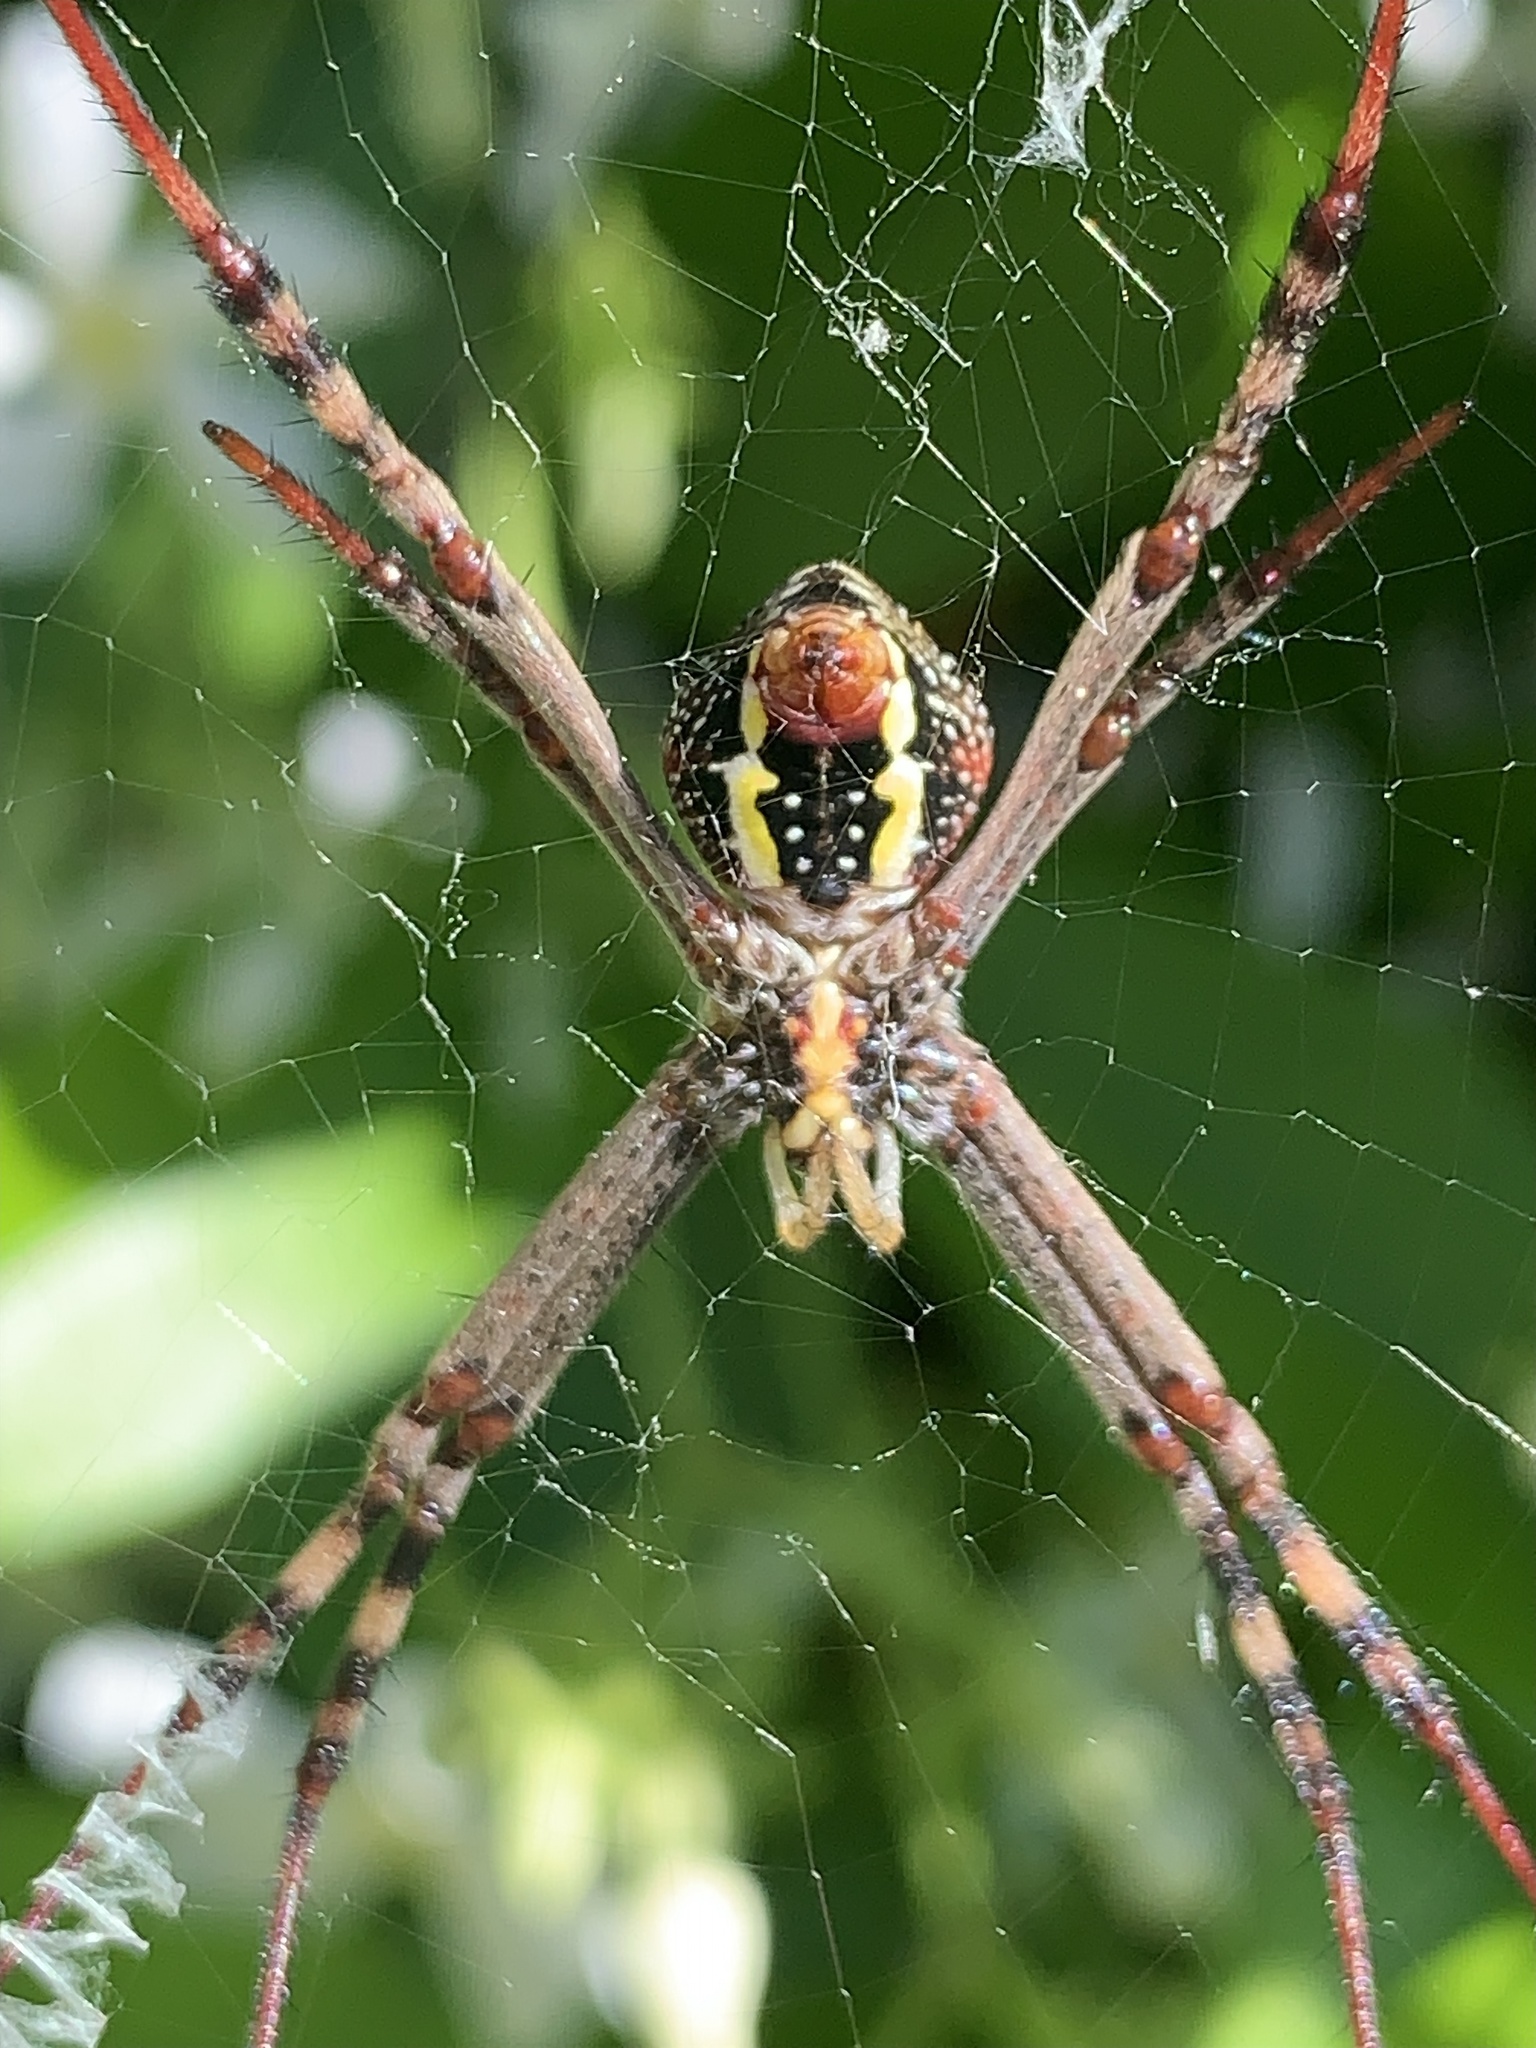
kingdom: Animalia
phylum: Arthropoda
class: Arachnida
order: Araneae
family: Araneidae
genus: Argiope
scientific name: Argiope keyserlingi
